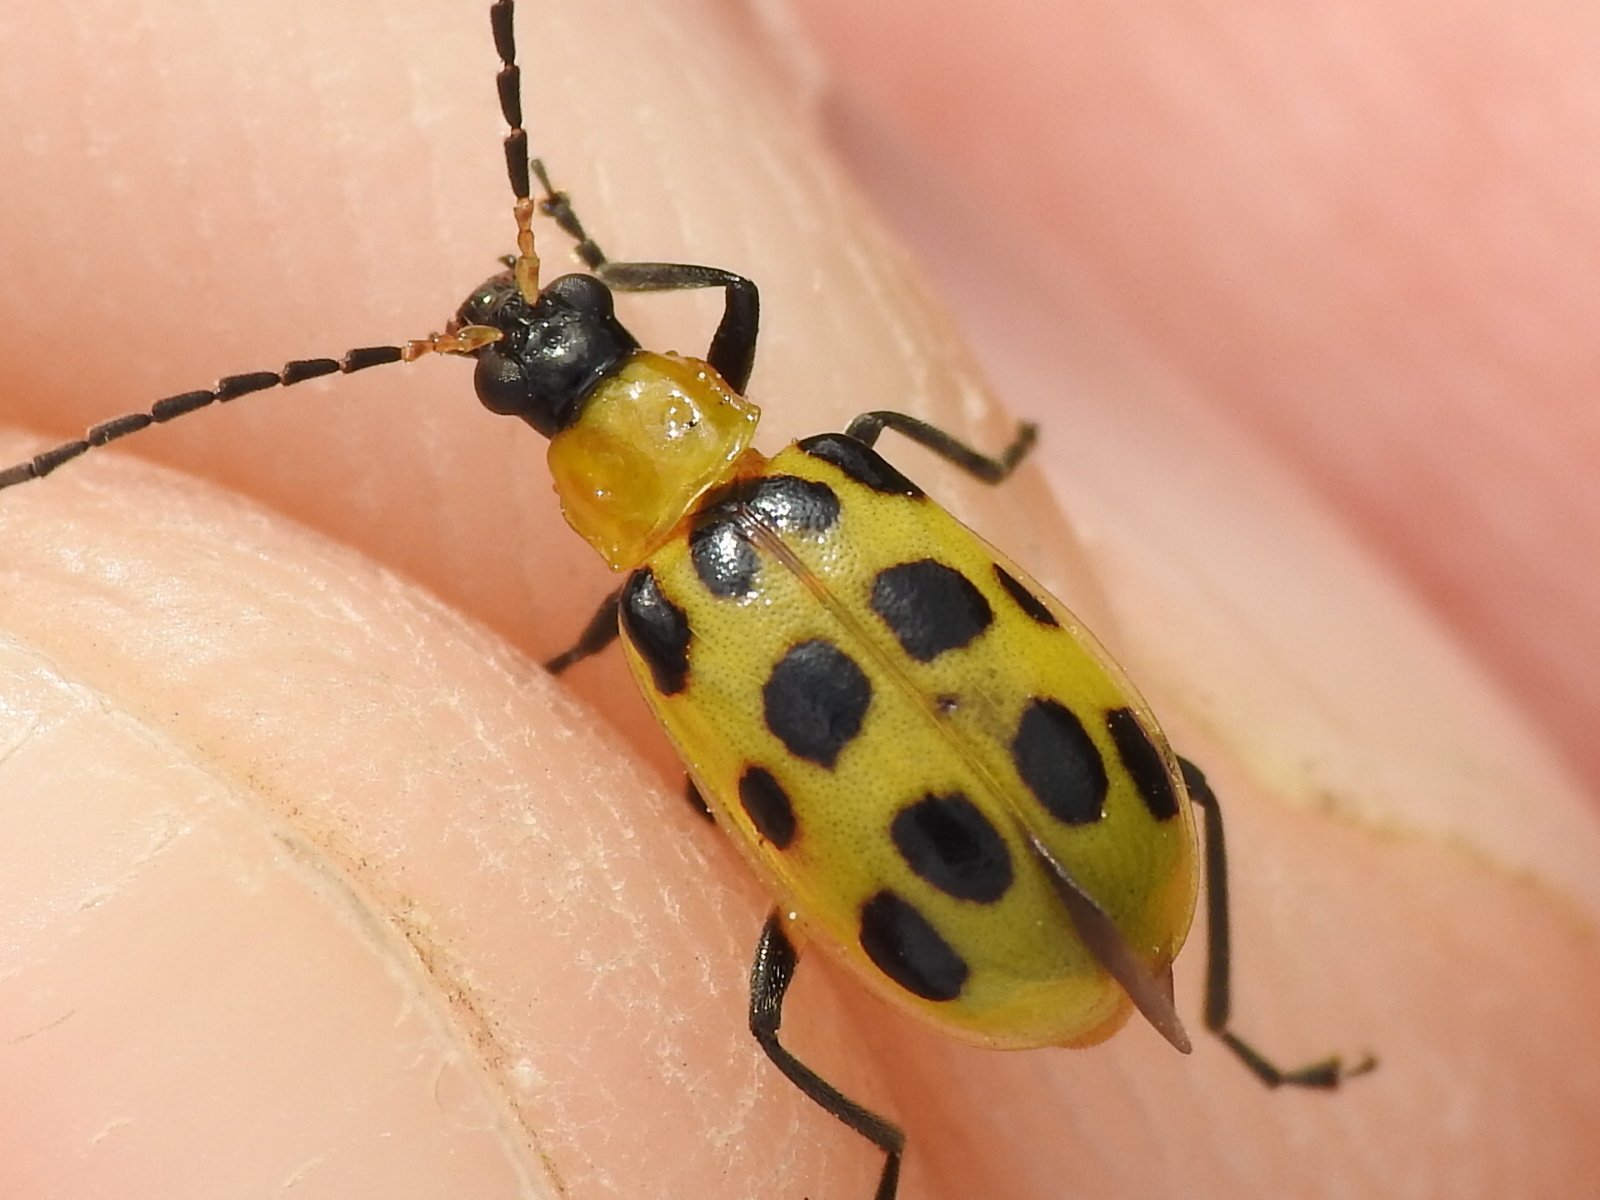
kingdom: Animalia
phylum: Arthropoda
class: Insecta
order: Coleoptera
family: Chrysomelidae
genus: Diabrotica
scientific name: Diabrotica undecimpunctata
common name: Spotted cucumber beetle
